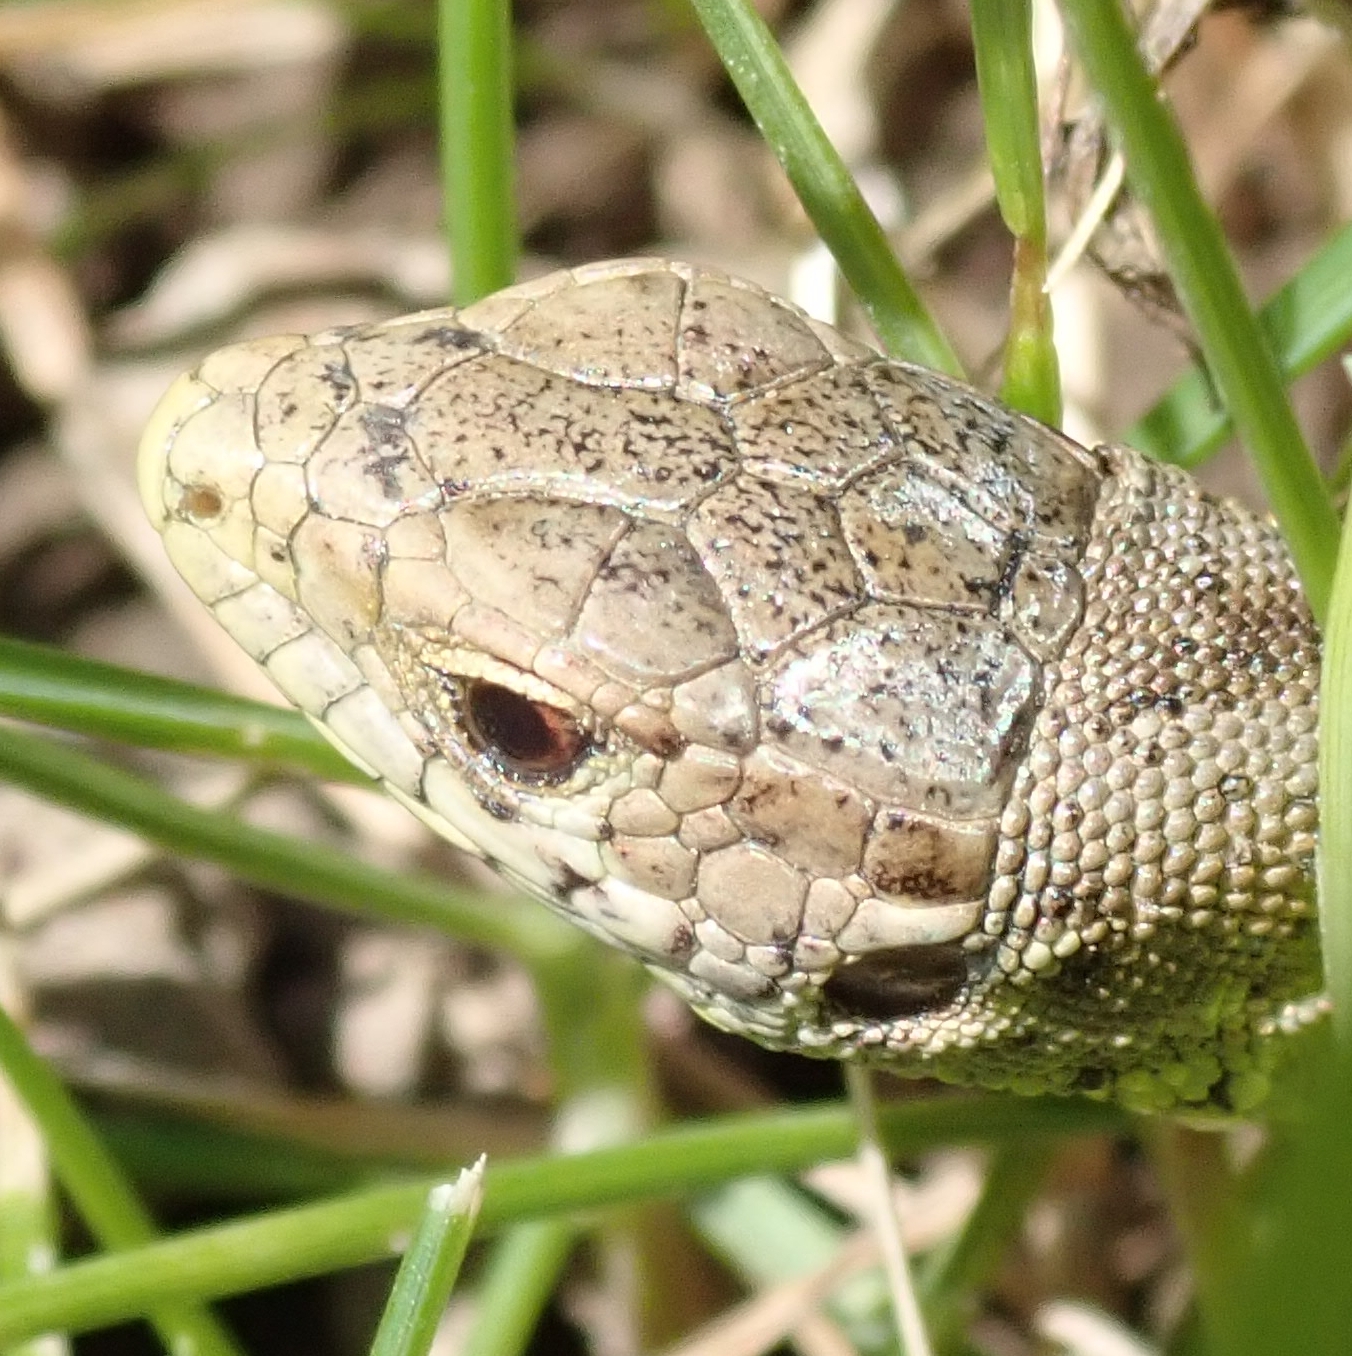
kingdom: Animalia
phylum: Chordata
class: Squamata
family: Lacertidae
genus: Lacerta
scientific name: Lacerta agilis
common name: Sand lizard
